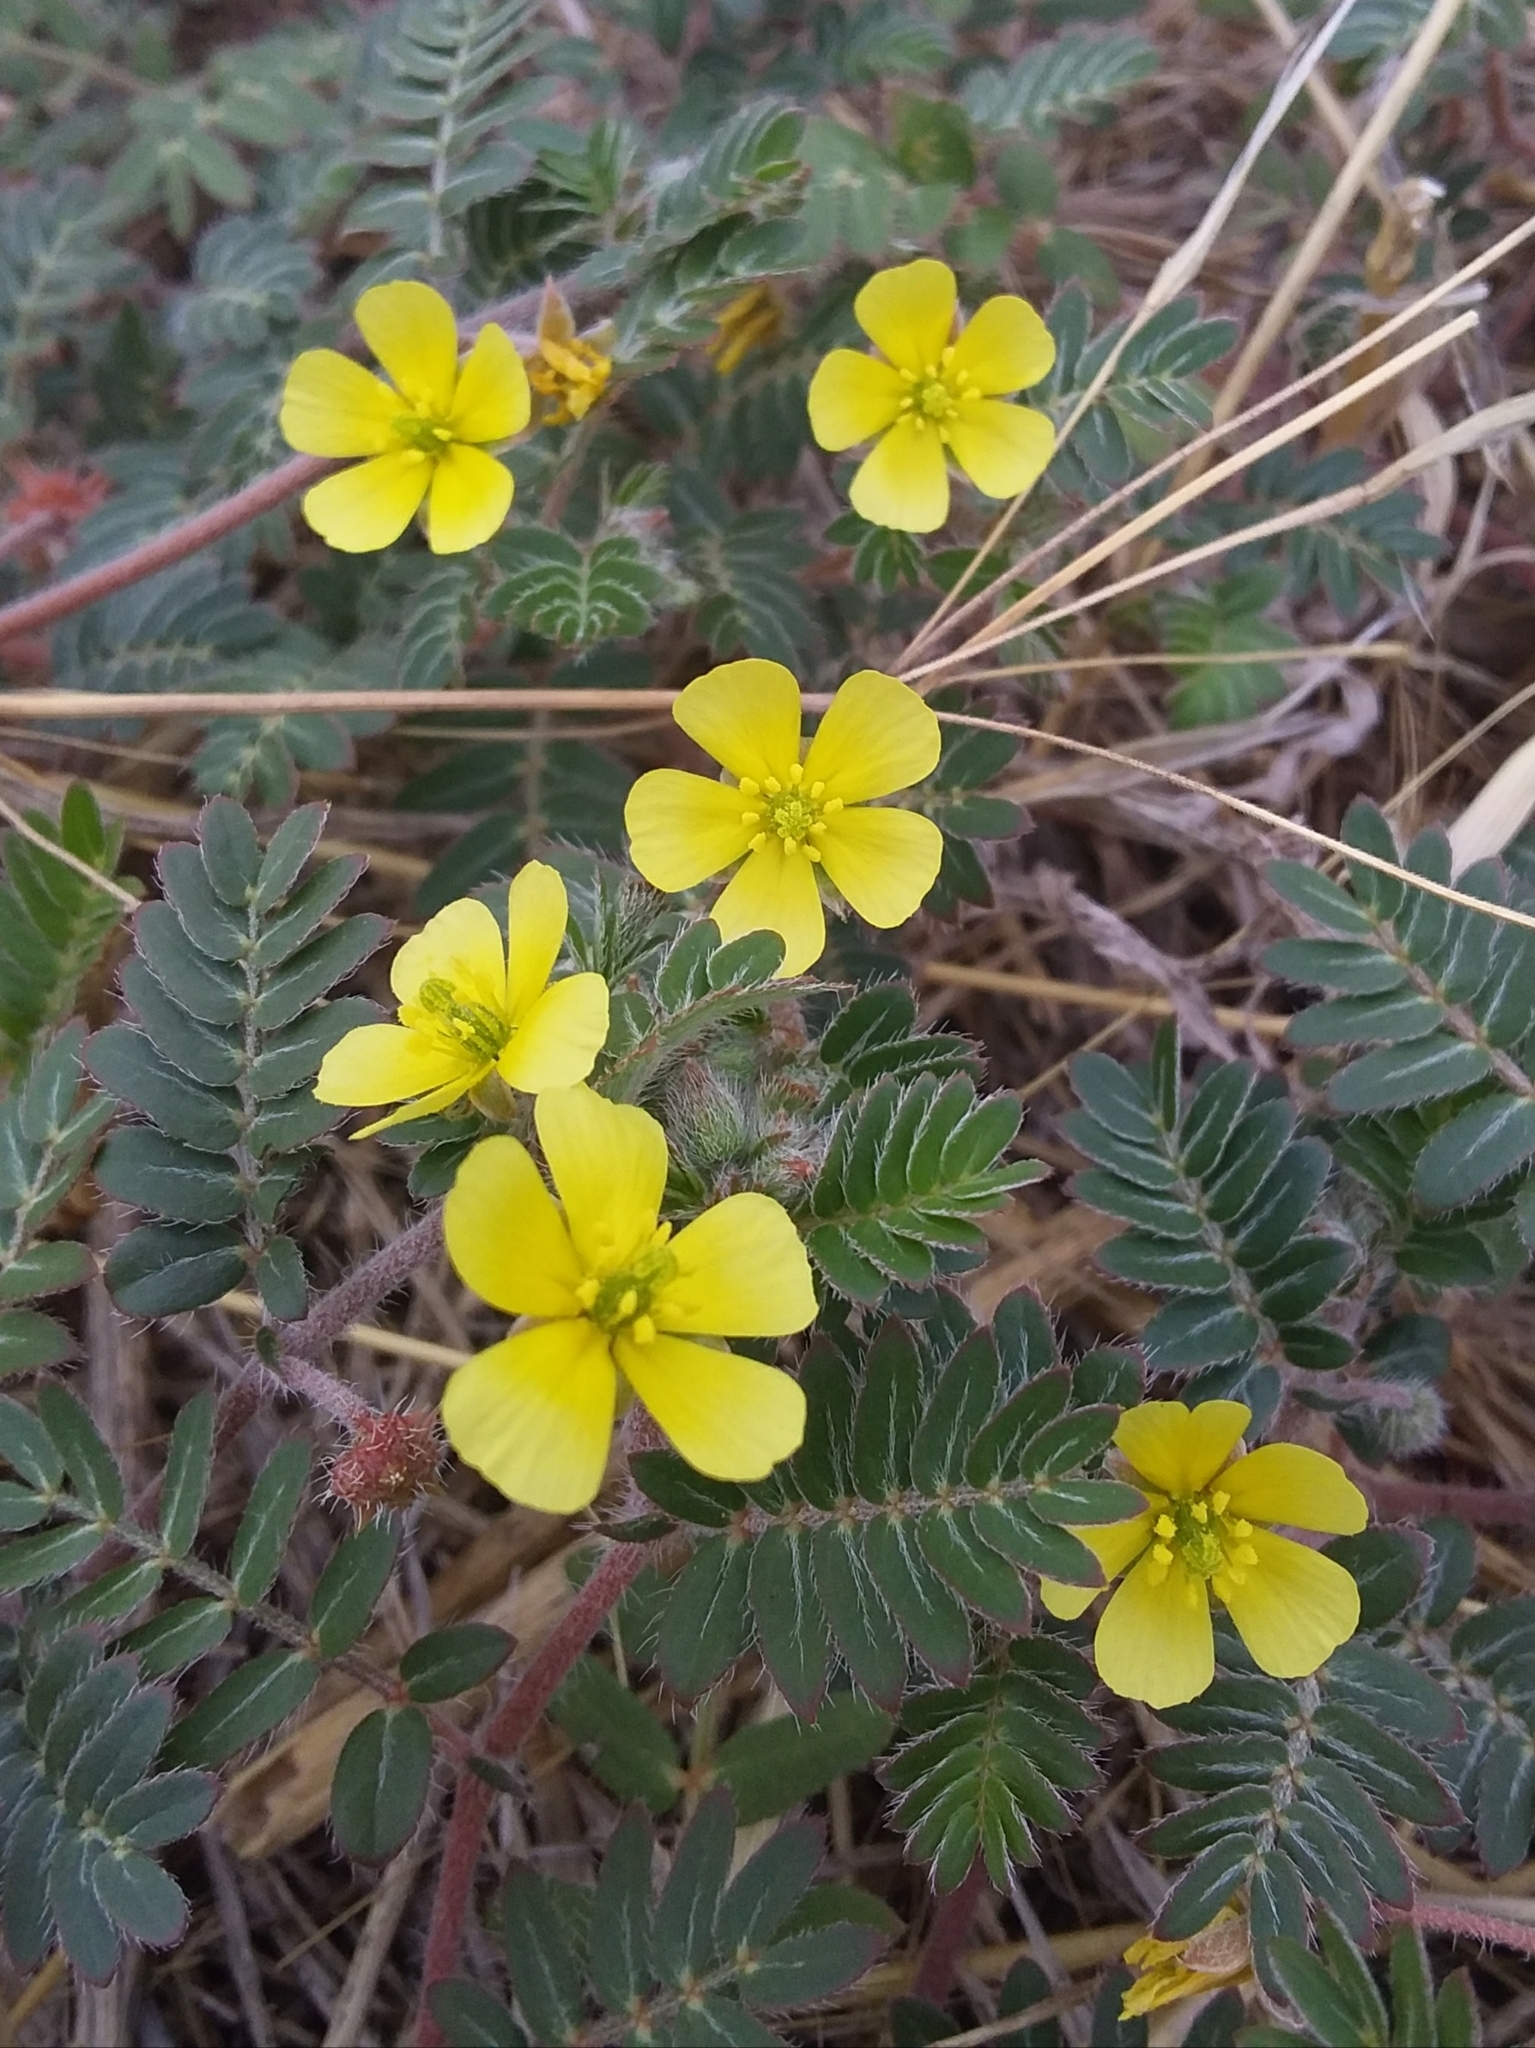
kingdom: Plantae
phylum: Tracheophyta
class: Magnoliopsida
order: Zygophyllales
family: Zygophyllaceae
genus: Tribulus
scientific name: Tribulus terrestris
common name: Puncturevine
